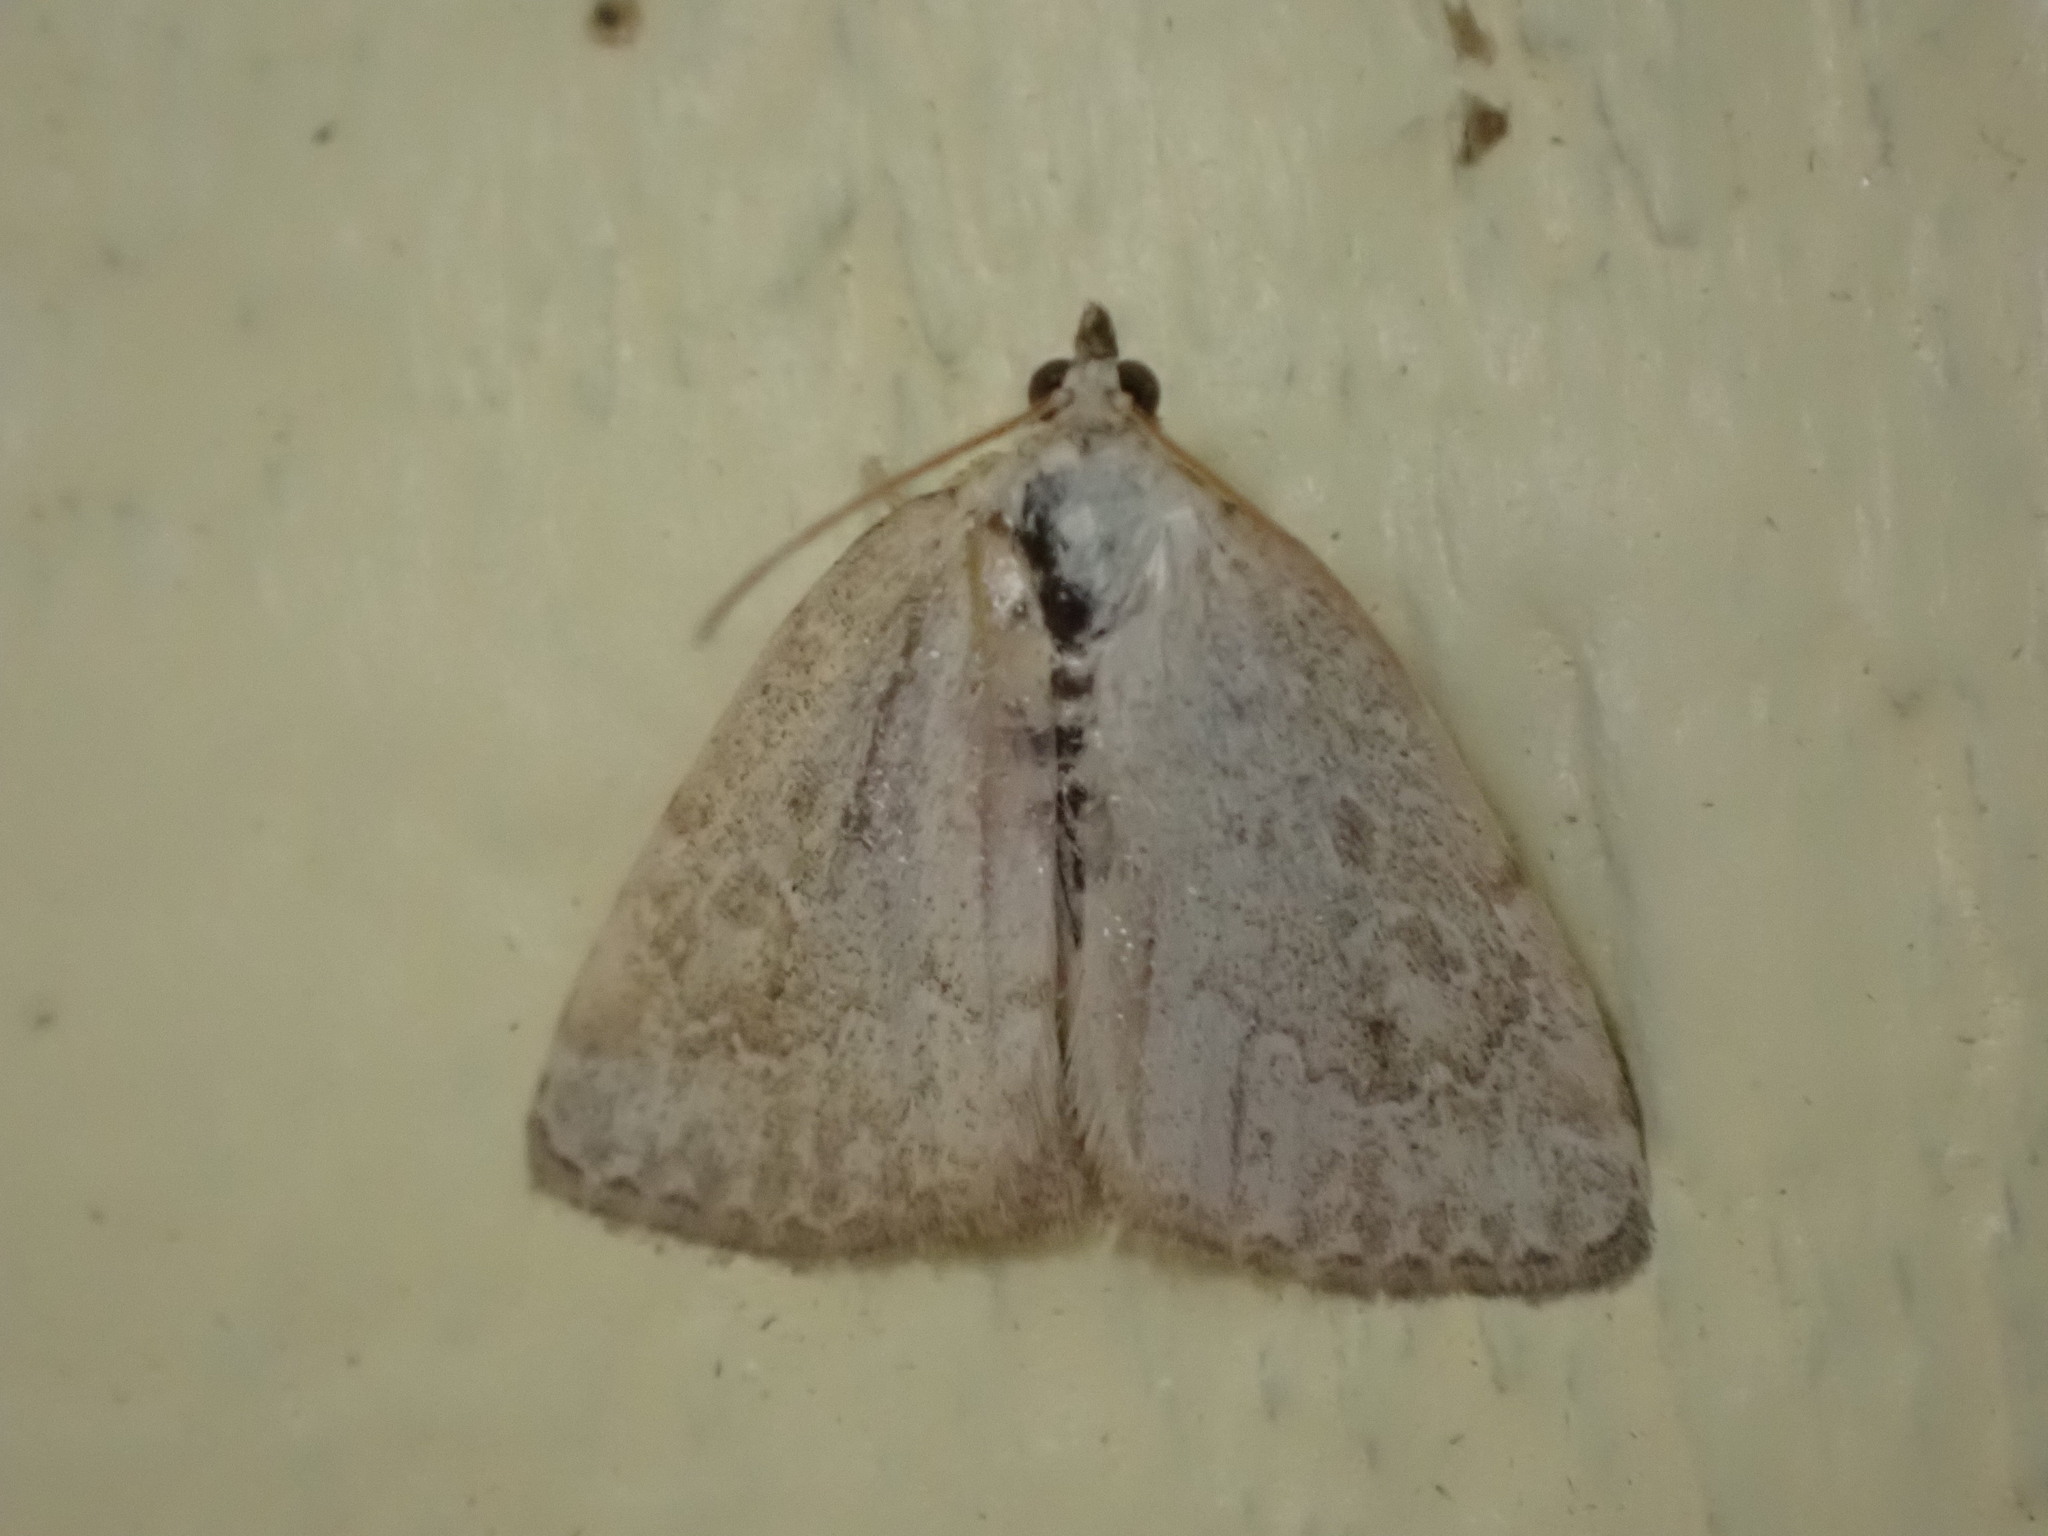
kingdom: Animalia
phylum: Arthropoda
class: Insecta
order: Lepidoptera
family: Noctuidae
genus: Protodeltote
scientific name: Protodeltote albidula
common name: Pale glyph
